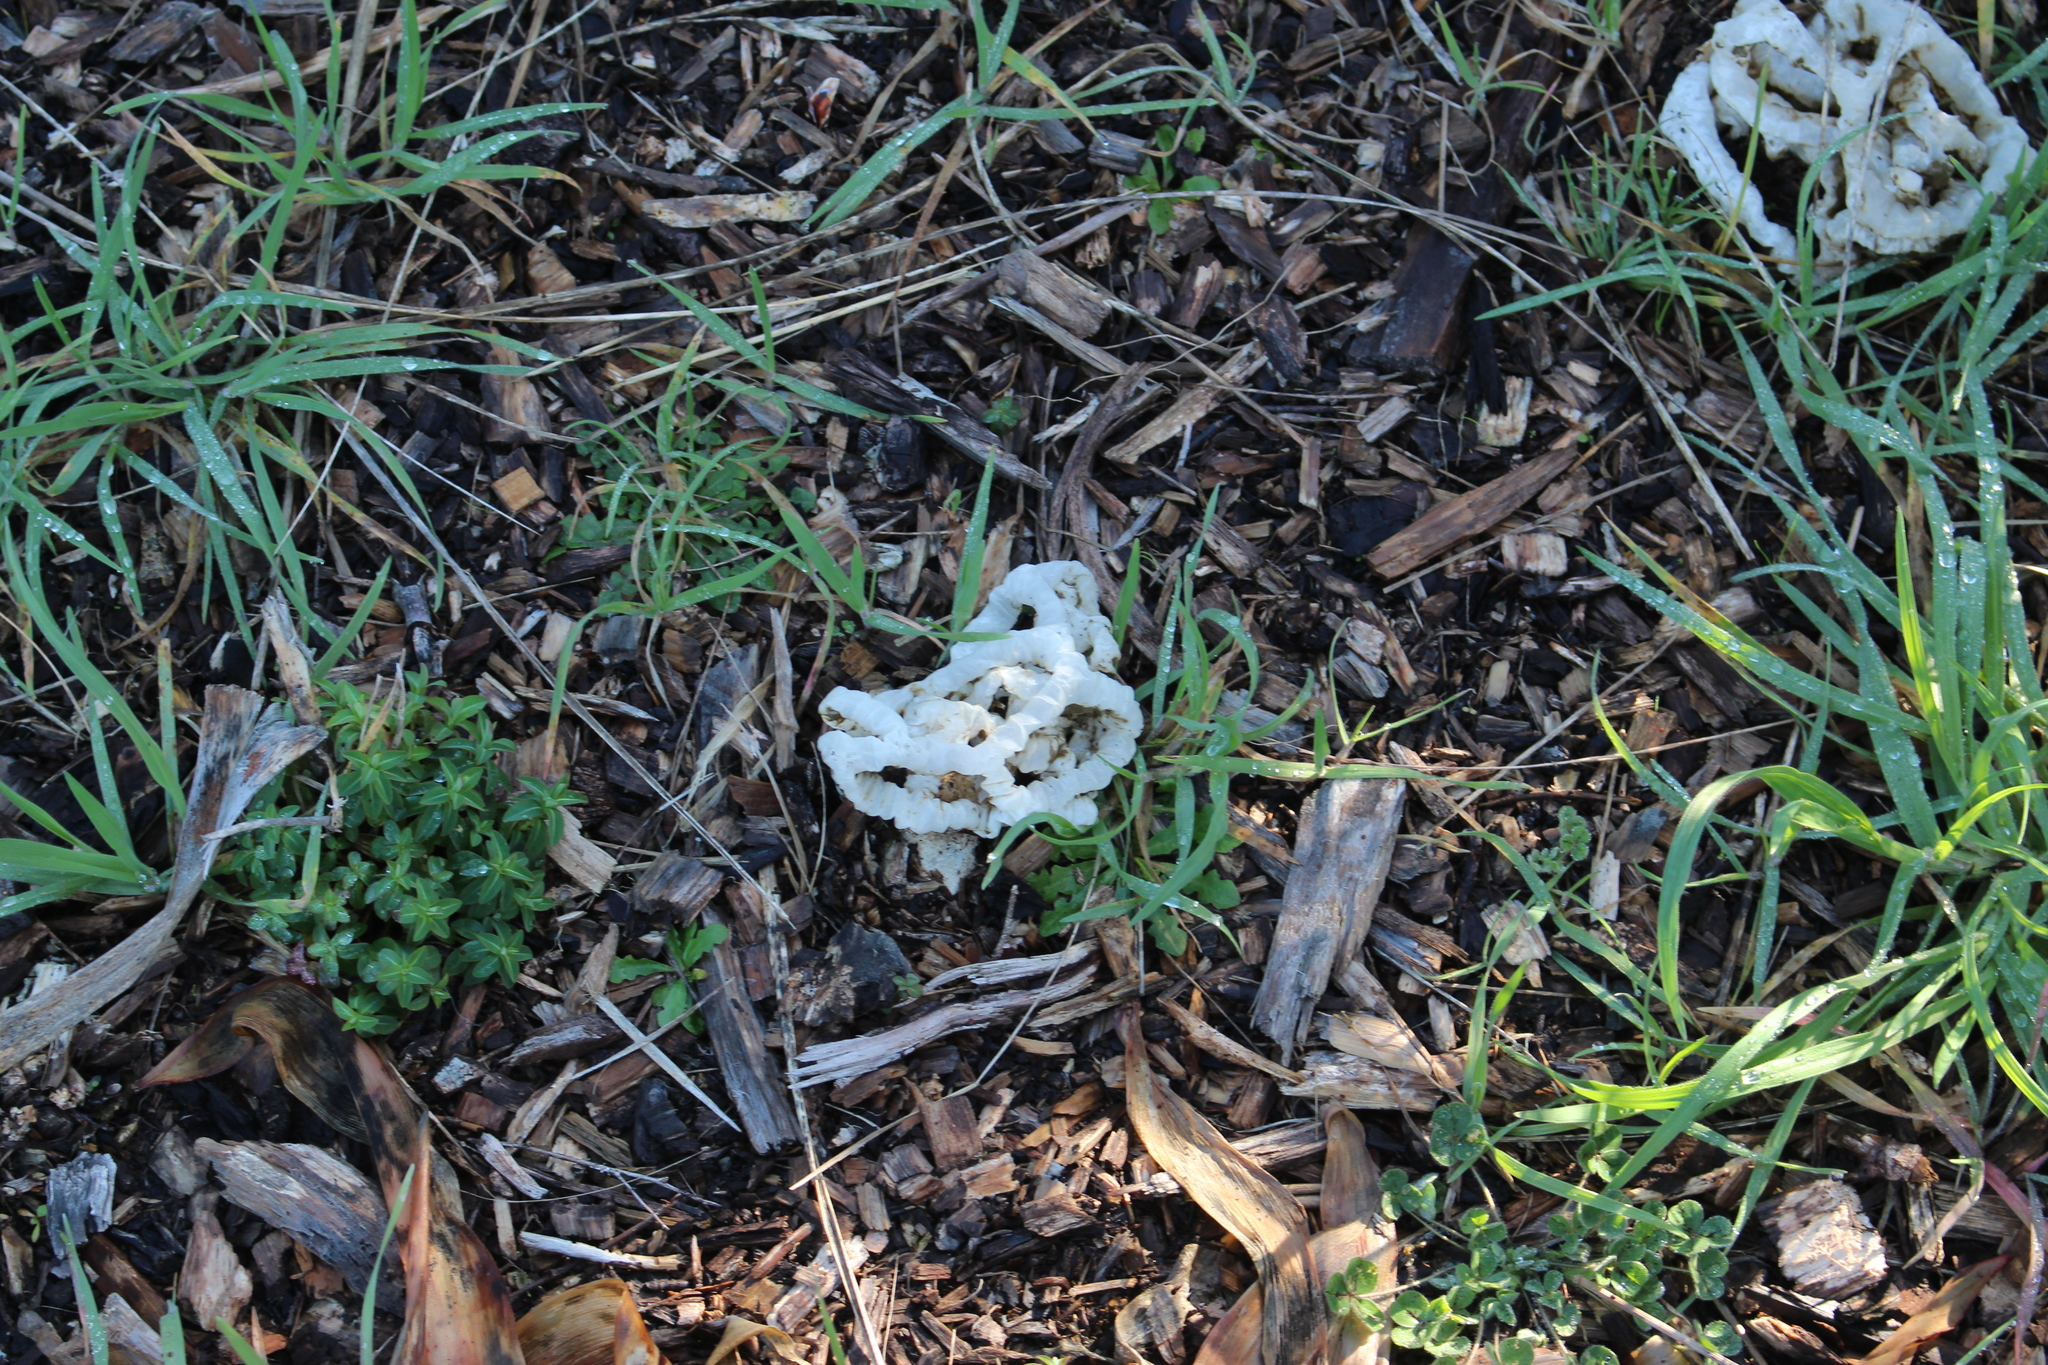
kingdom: Fungi
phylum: Basidiomycota
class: Agaricomycetes
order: Phallales
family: Phallaceae
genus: Ileodictyon
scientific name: Ileodictyon cibarium
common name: Basket fungus
